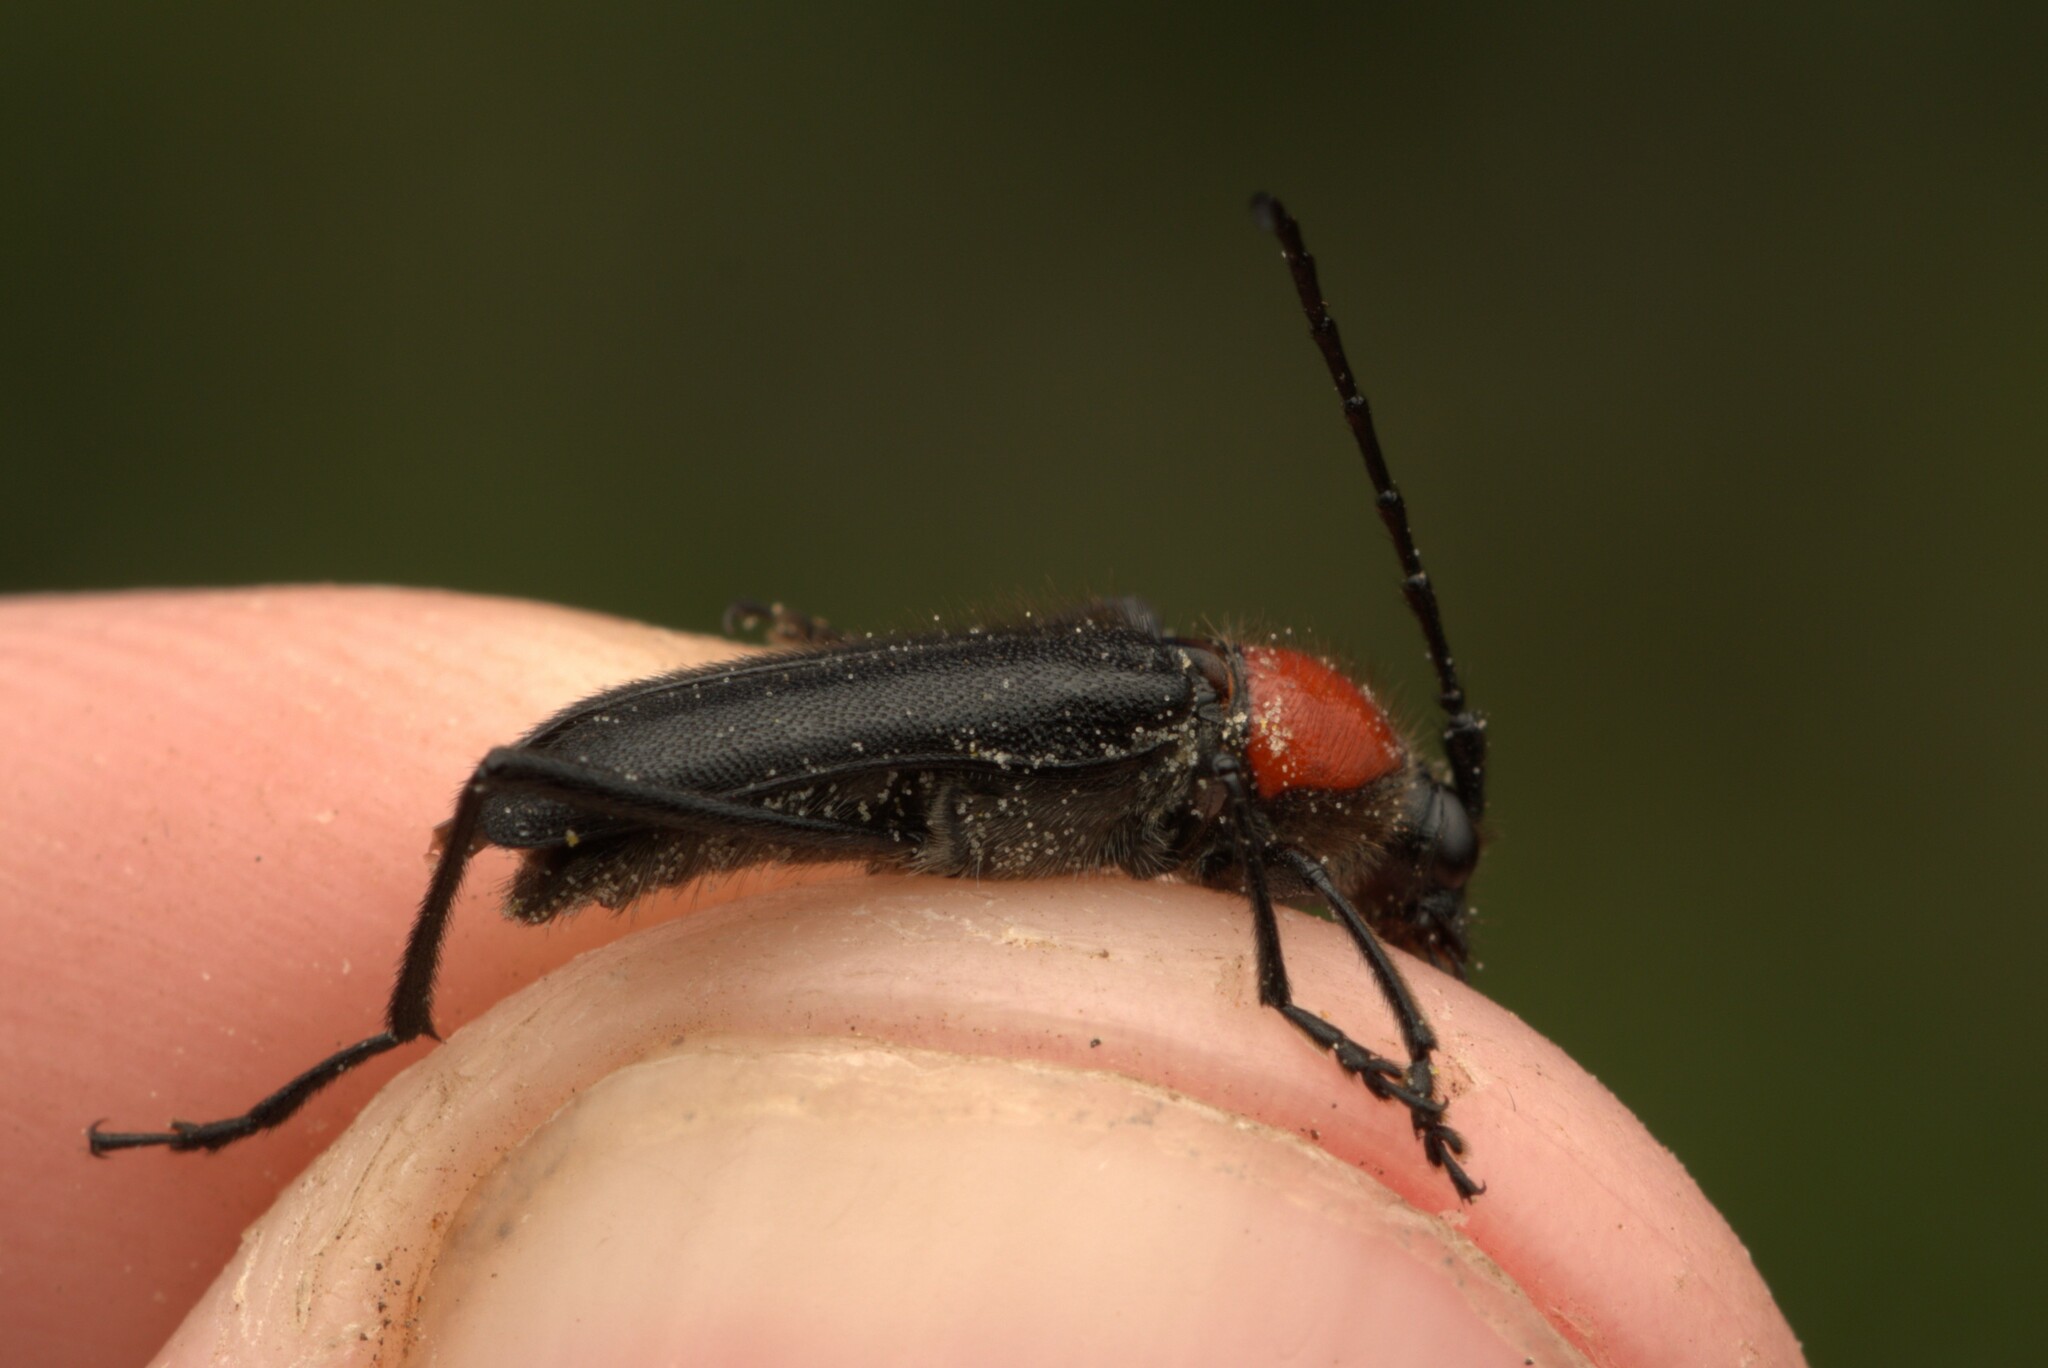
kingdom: Animalia
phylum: Arthropoda
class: Insecta
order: Coleoptera
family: Cerambycidae
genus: Batyle
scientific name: Batyle ignicollis
